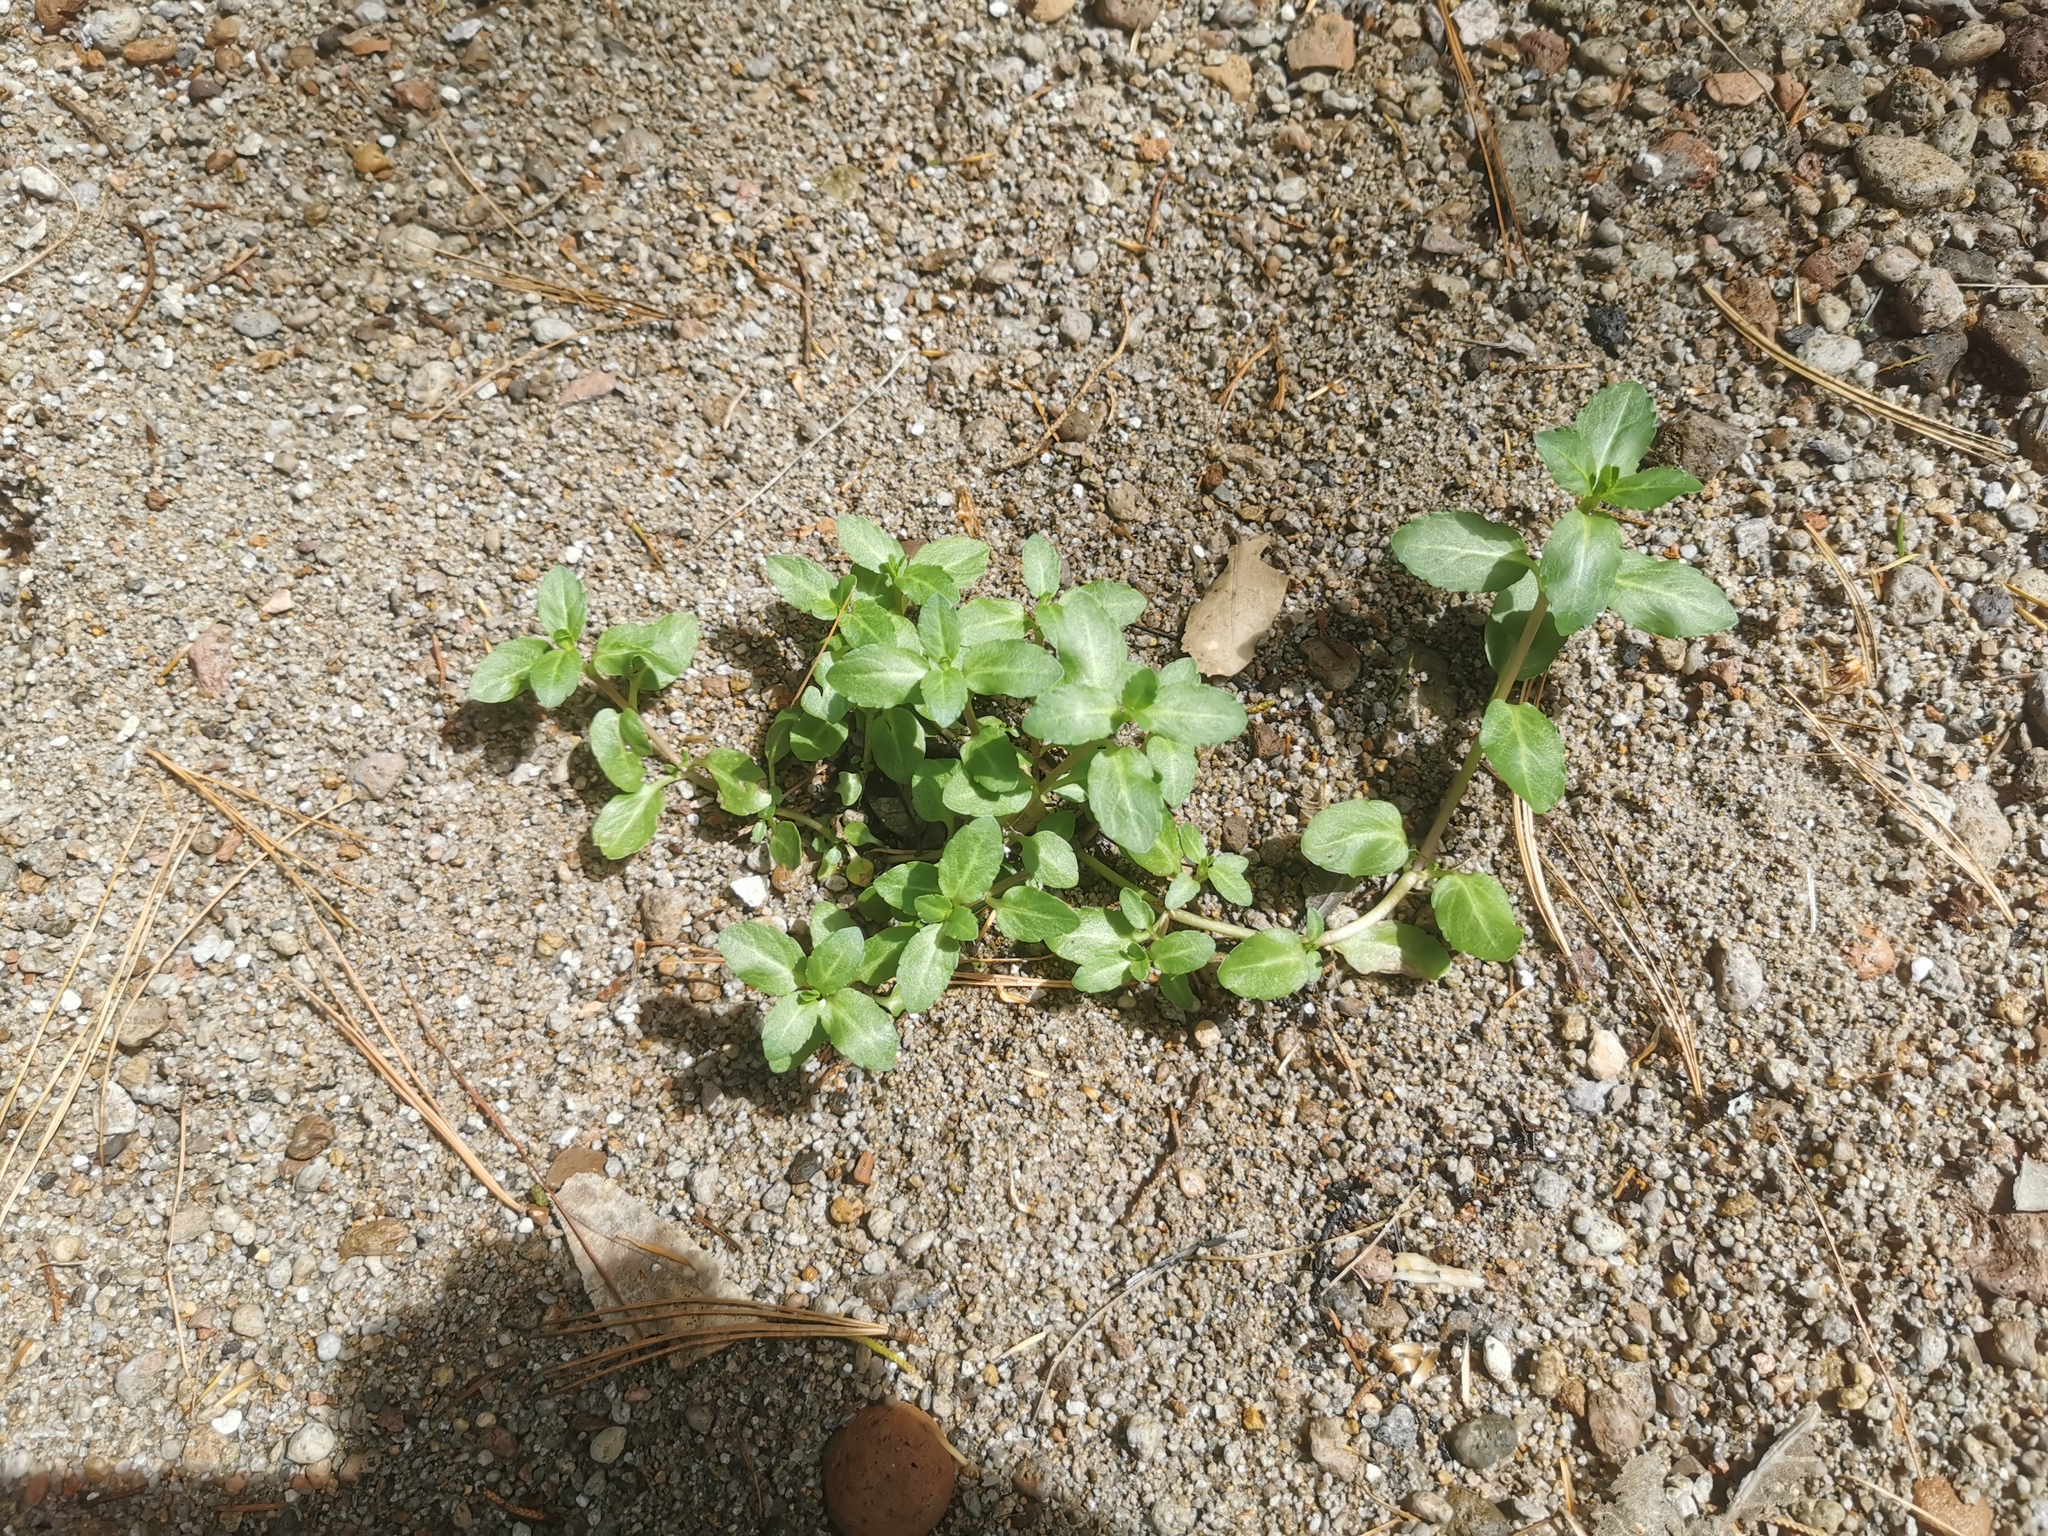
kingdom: Plantae
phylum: Tracheophyta
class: Magnoliopsida
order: Lamiales
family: Plantaginaceae
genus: Veronica
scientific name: Veronica americana
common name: American brooklime
